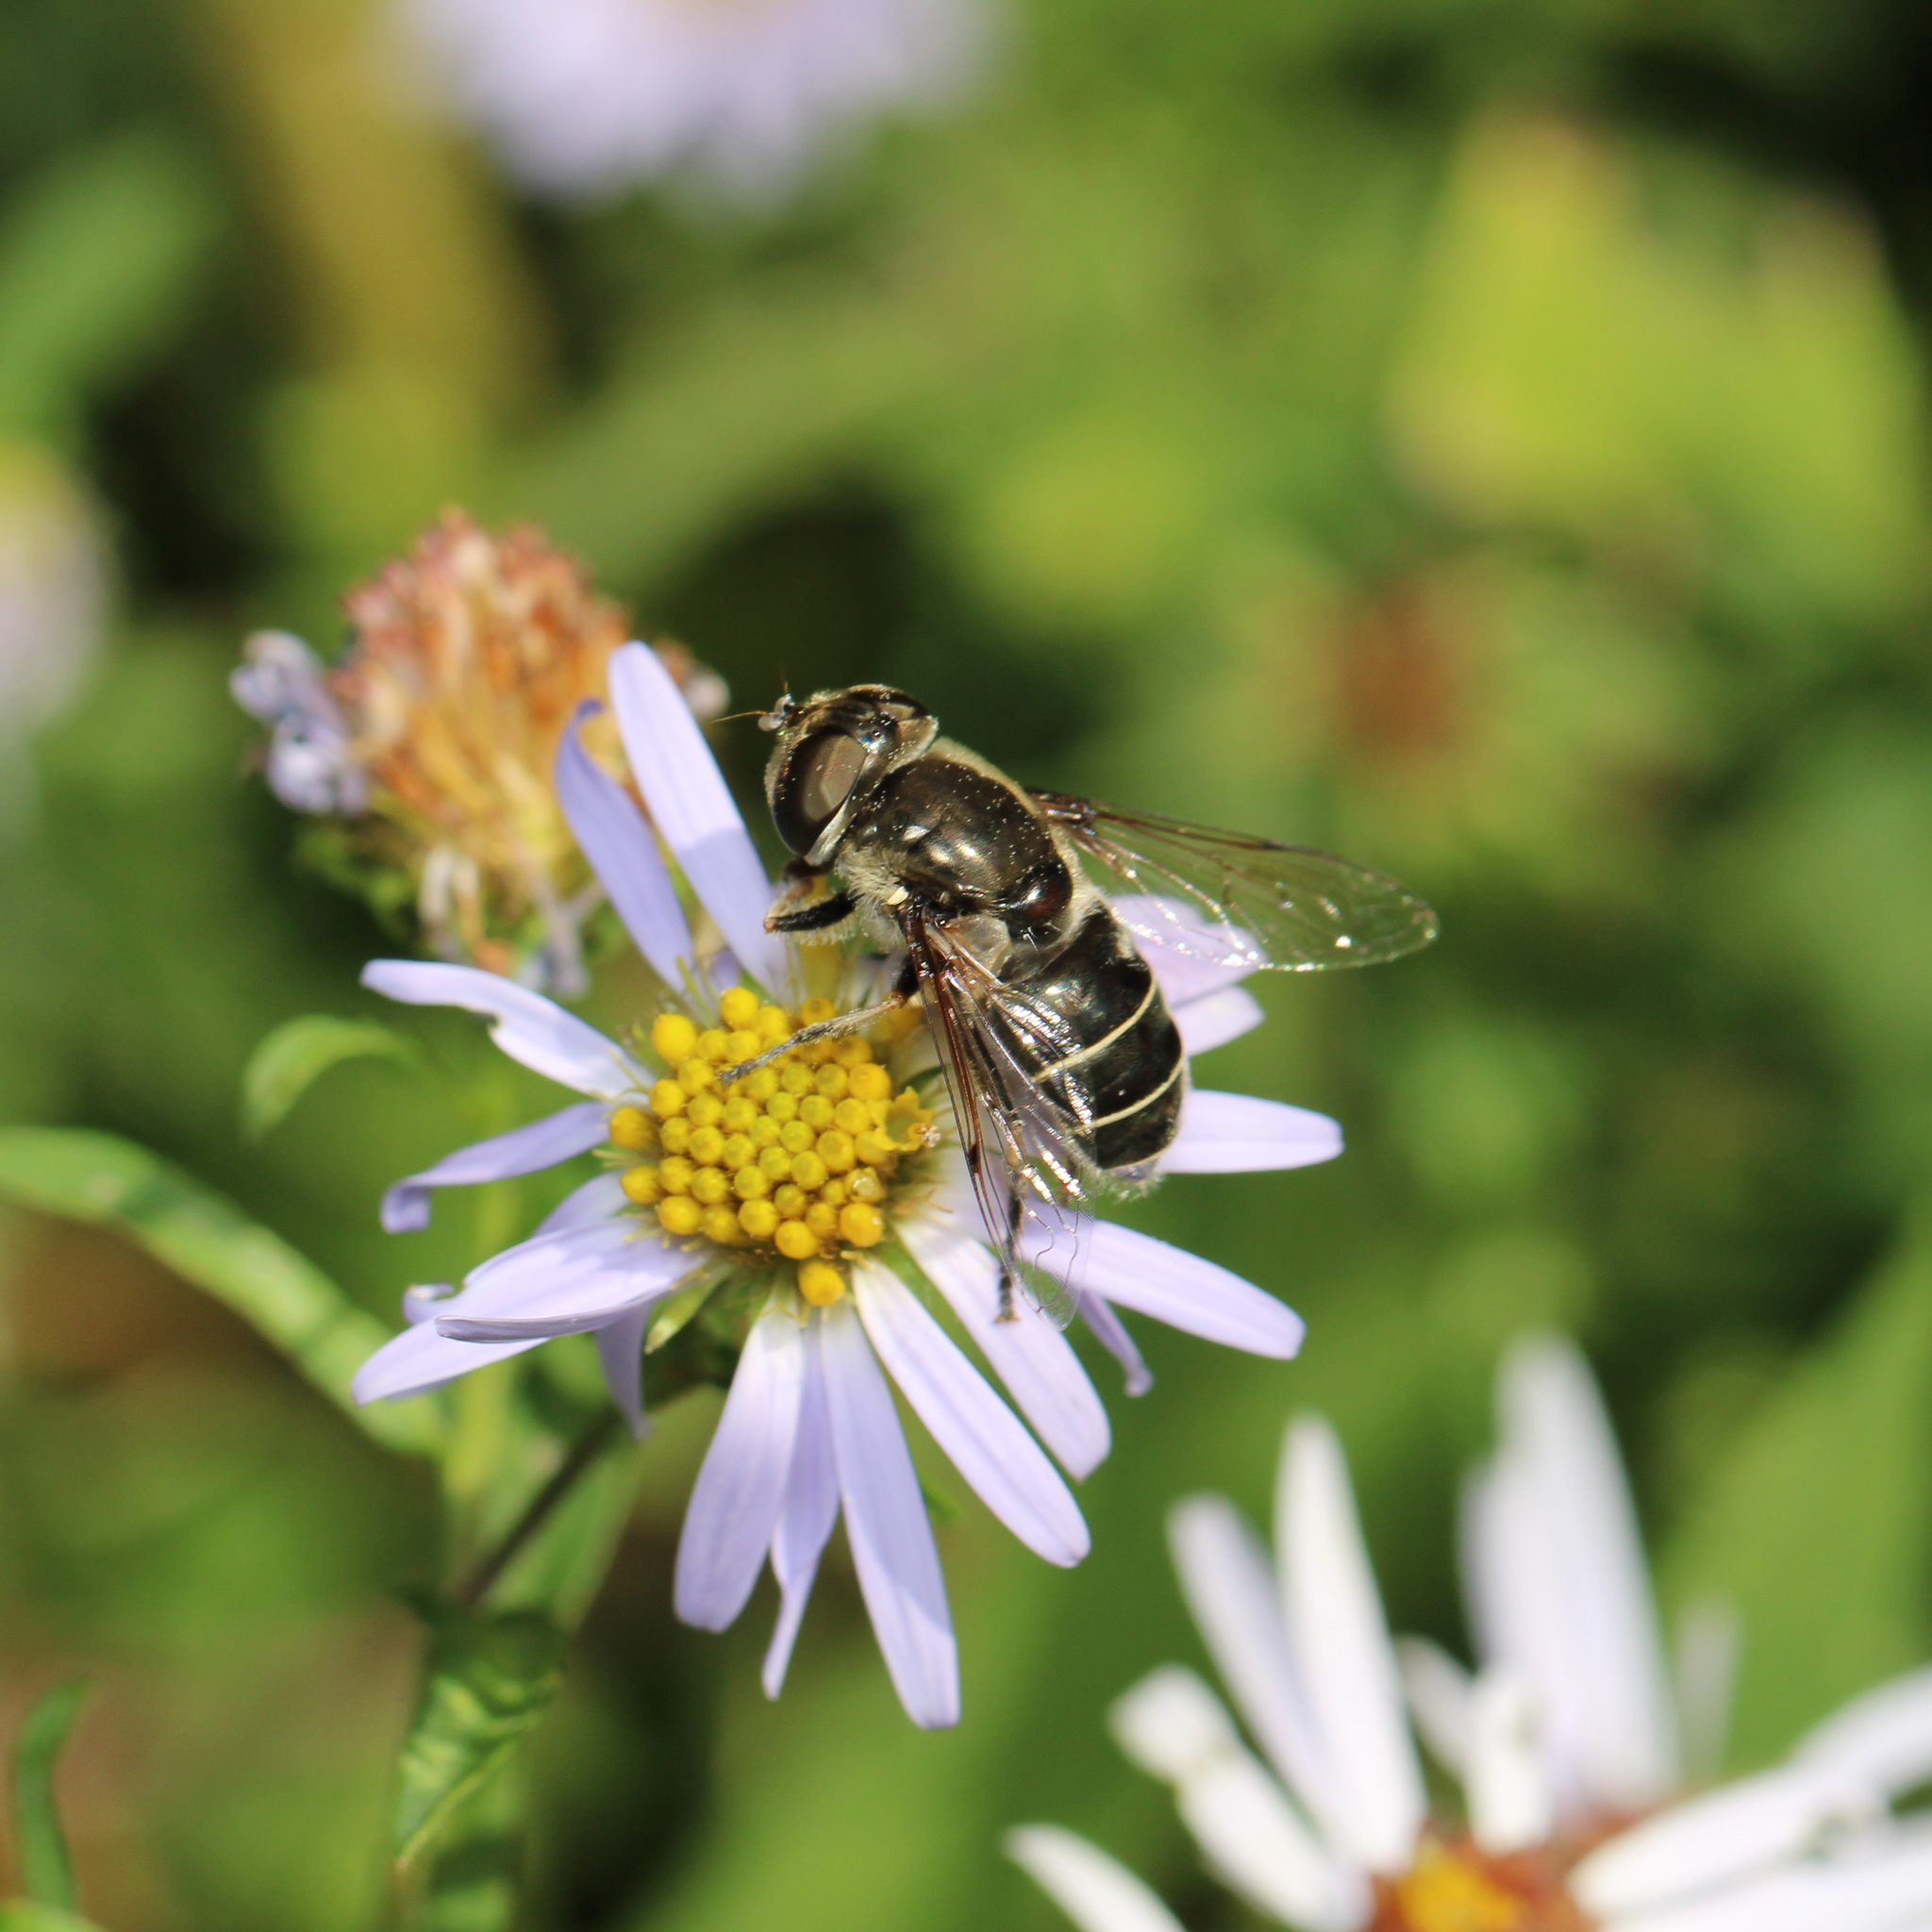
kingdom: Animalia
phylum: Arthropoda
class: Insecta
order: Diptera
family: Syrphidae
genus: Eristalis
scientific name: Eristalis dimidiata
